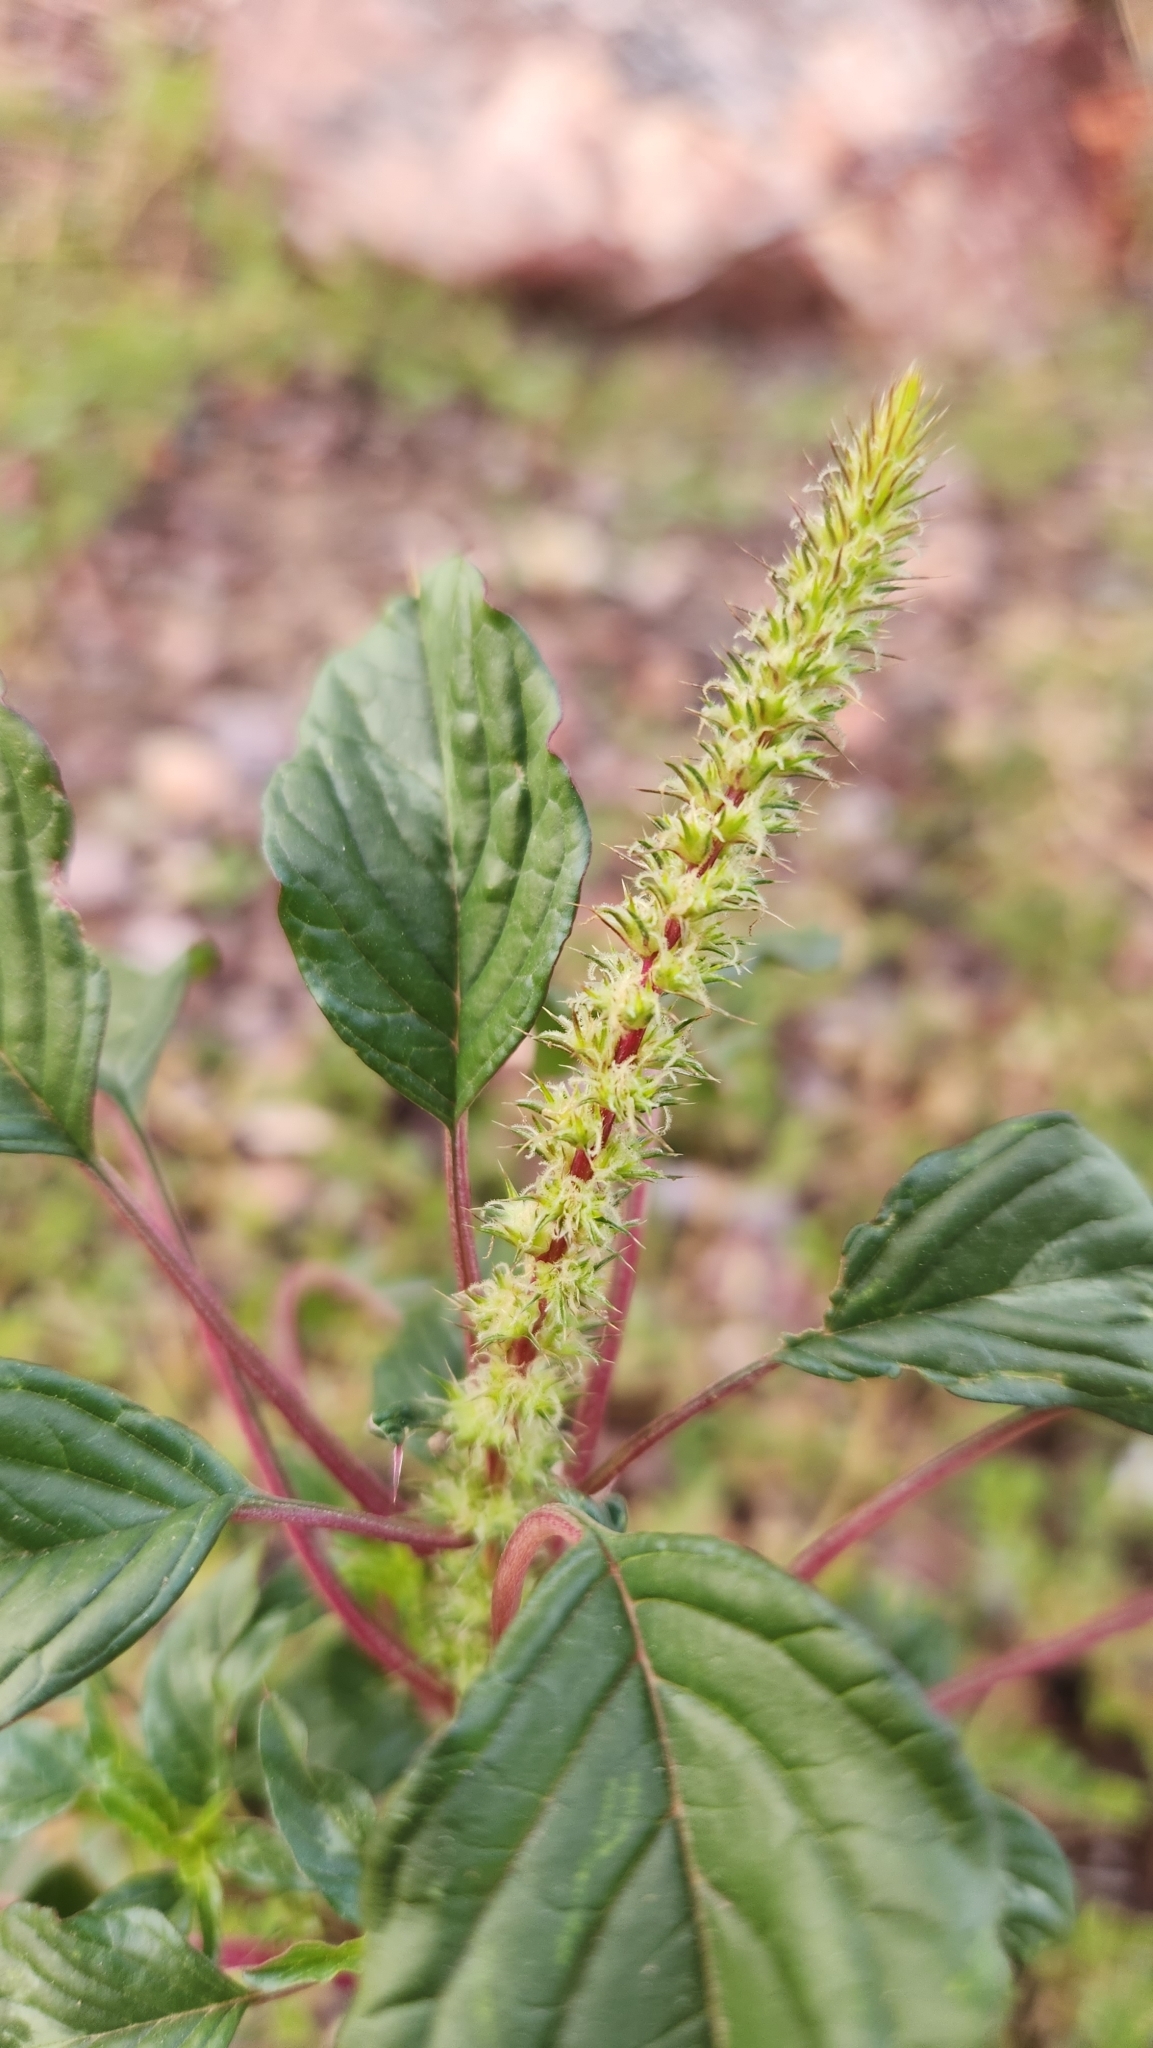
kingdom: Plantae
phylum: Tracheophyta
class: Magnoliopsida
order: Caryophyllales
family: Amaranthaceae
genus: Amaranthus
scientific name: Amaranthus palmeri
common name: Dioecious amaranth
